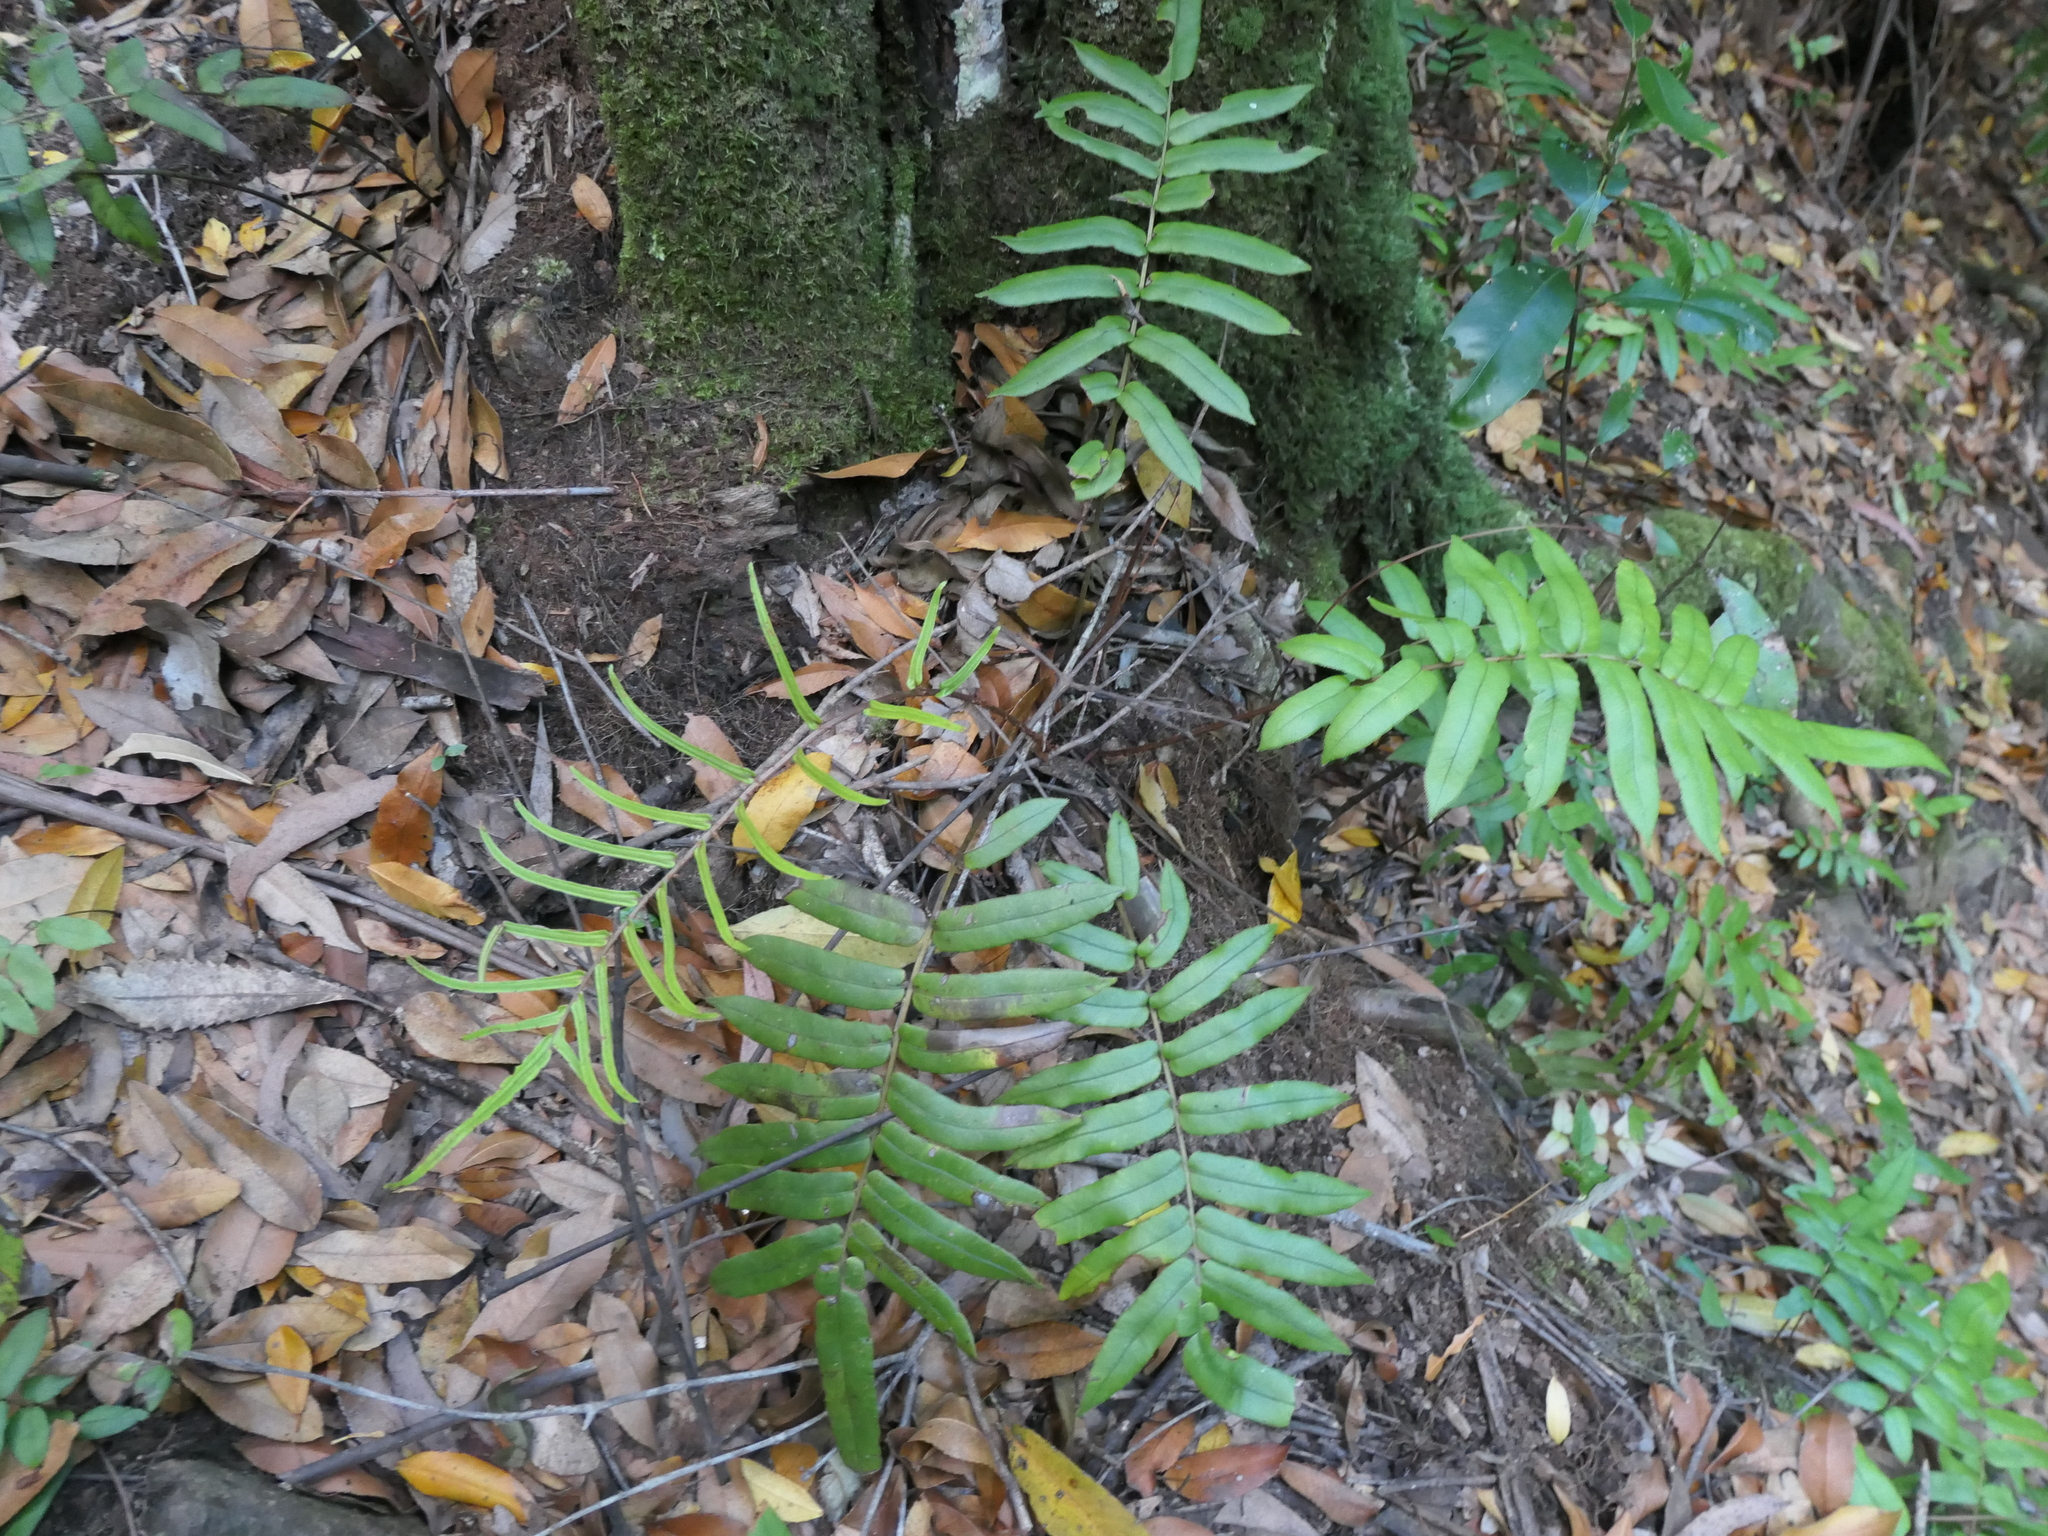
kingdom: Plantae
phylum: Tracheophyta
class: Polypodiopsida
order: Polypodiales
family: Blechnaceae
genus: Parablechnum
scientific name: Parablechnum wattsii
